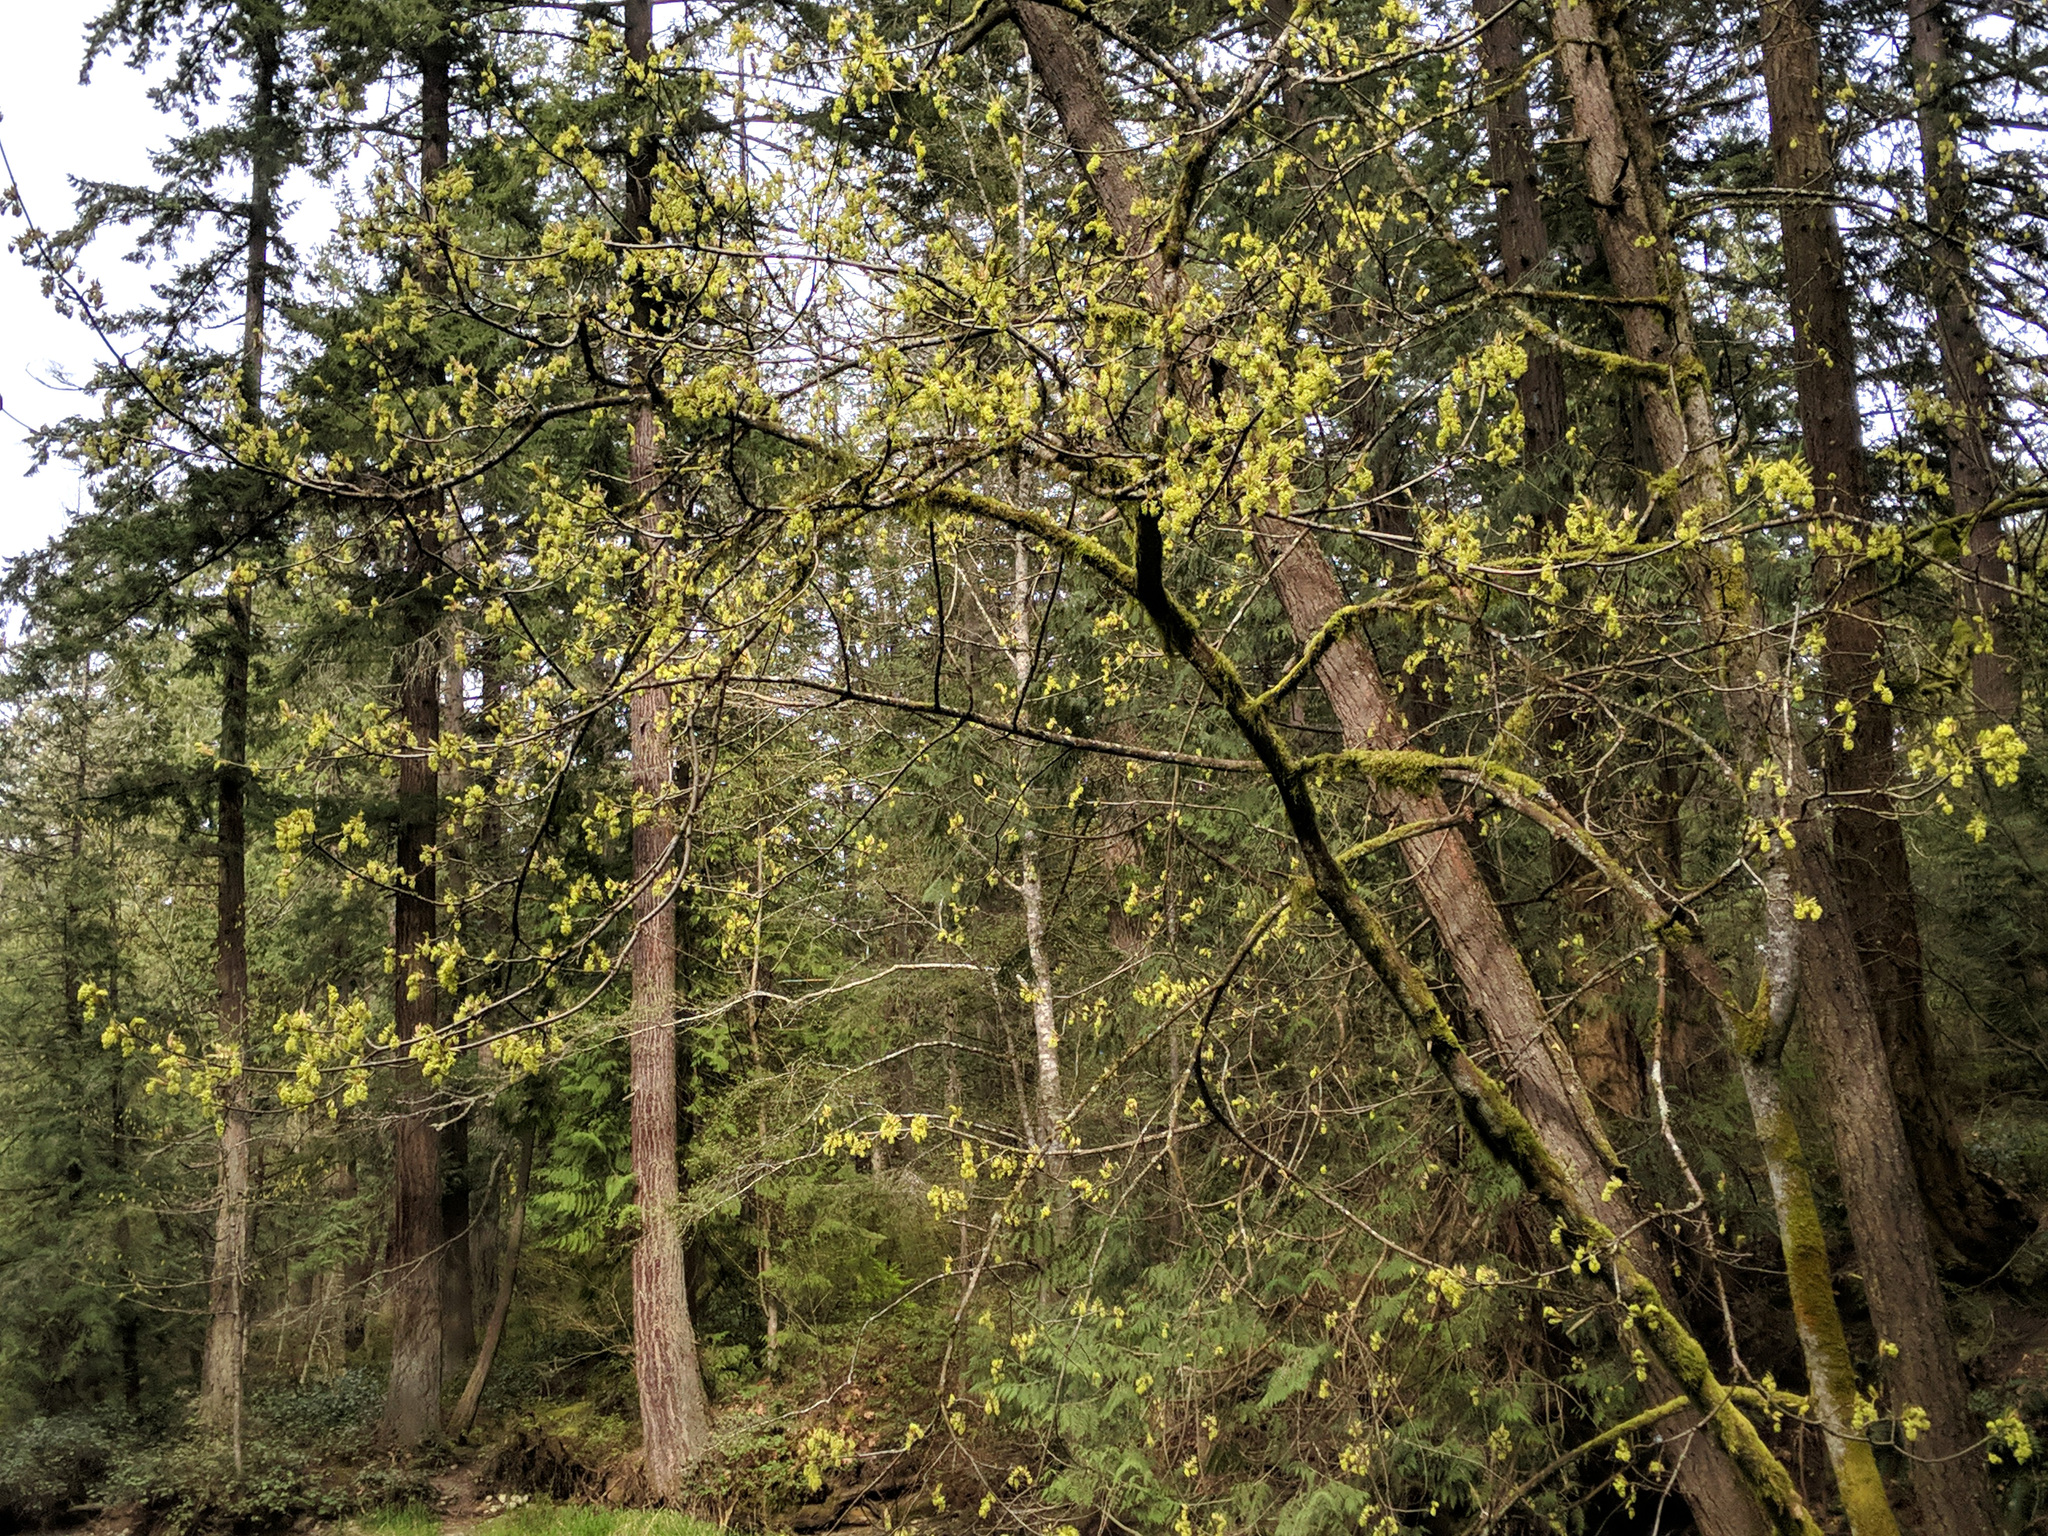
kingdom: Plantae
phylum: Tracheophyta
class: Magnoliopsida
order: Sapindales
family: Sapindaceae
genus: Acer
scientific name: Acer macrophyllum
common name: Oregon maple
